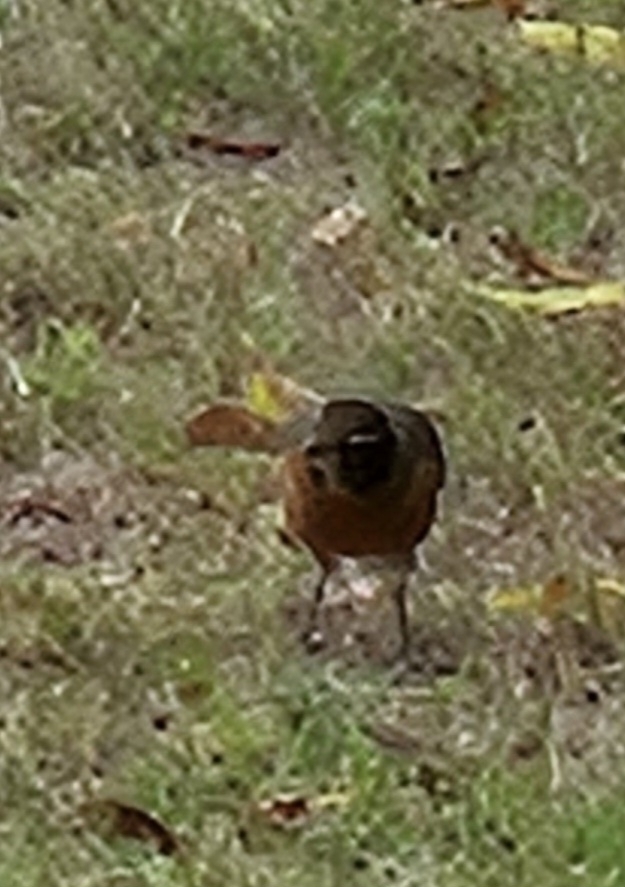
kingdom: Animalia
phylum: Chordata
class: Aves
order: Passeriformes
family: Turdidae
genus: Turdus
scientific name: Turdus migratorius
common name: American robin
